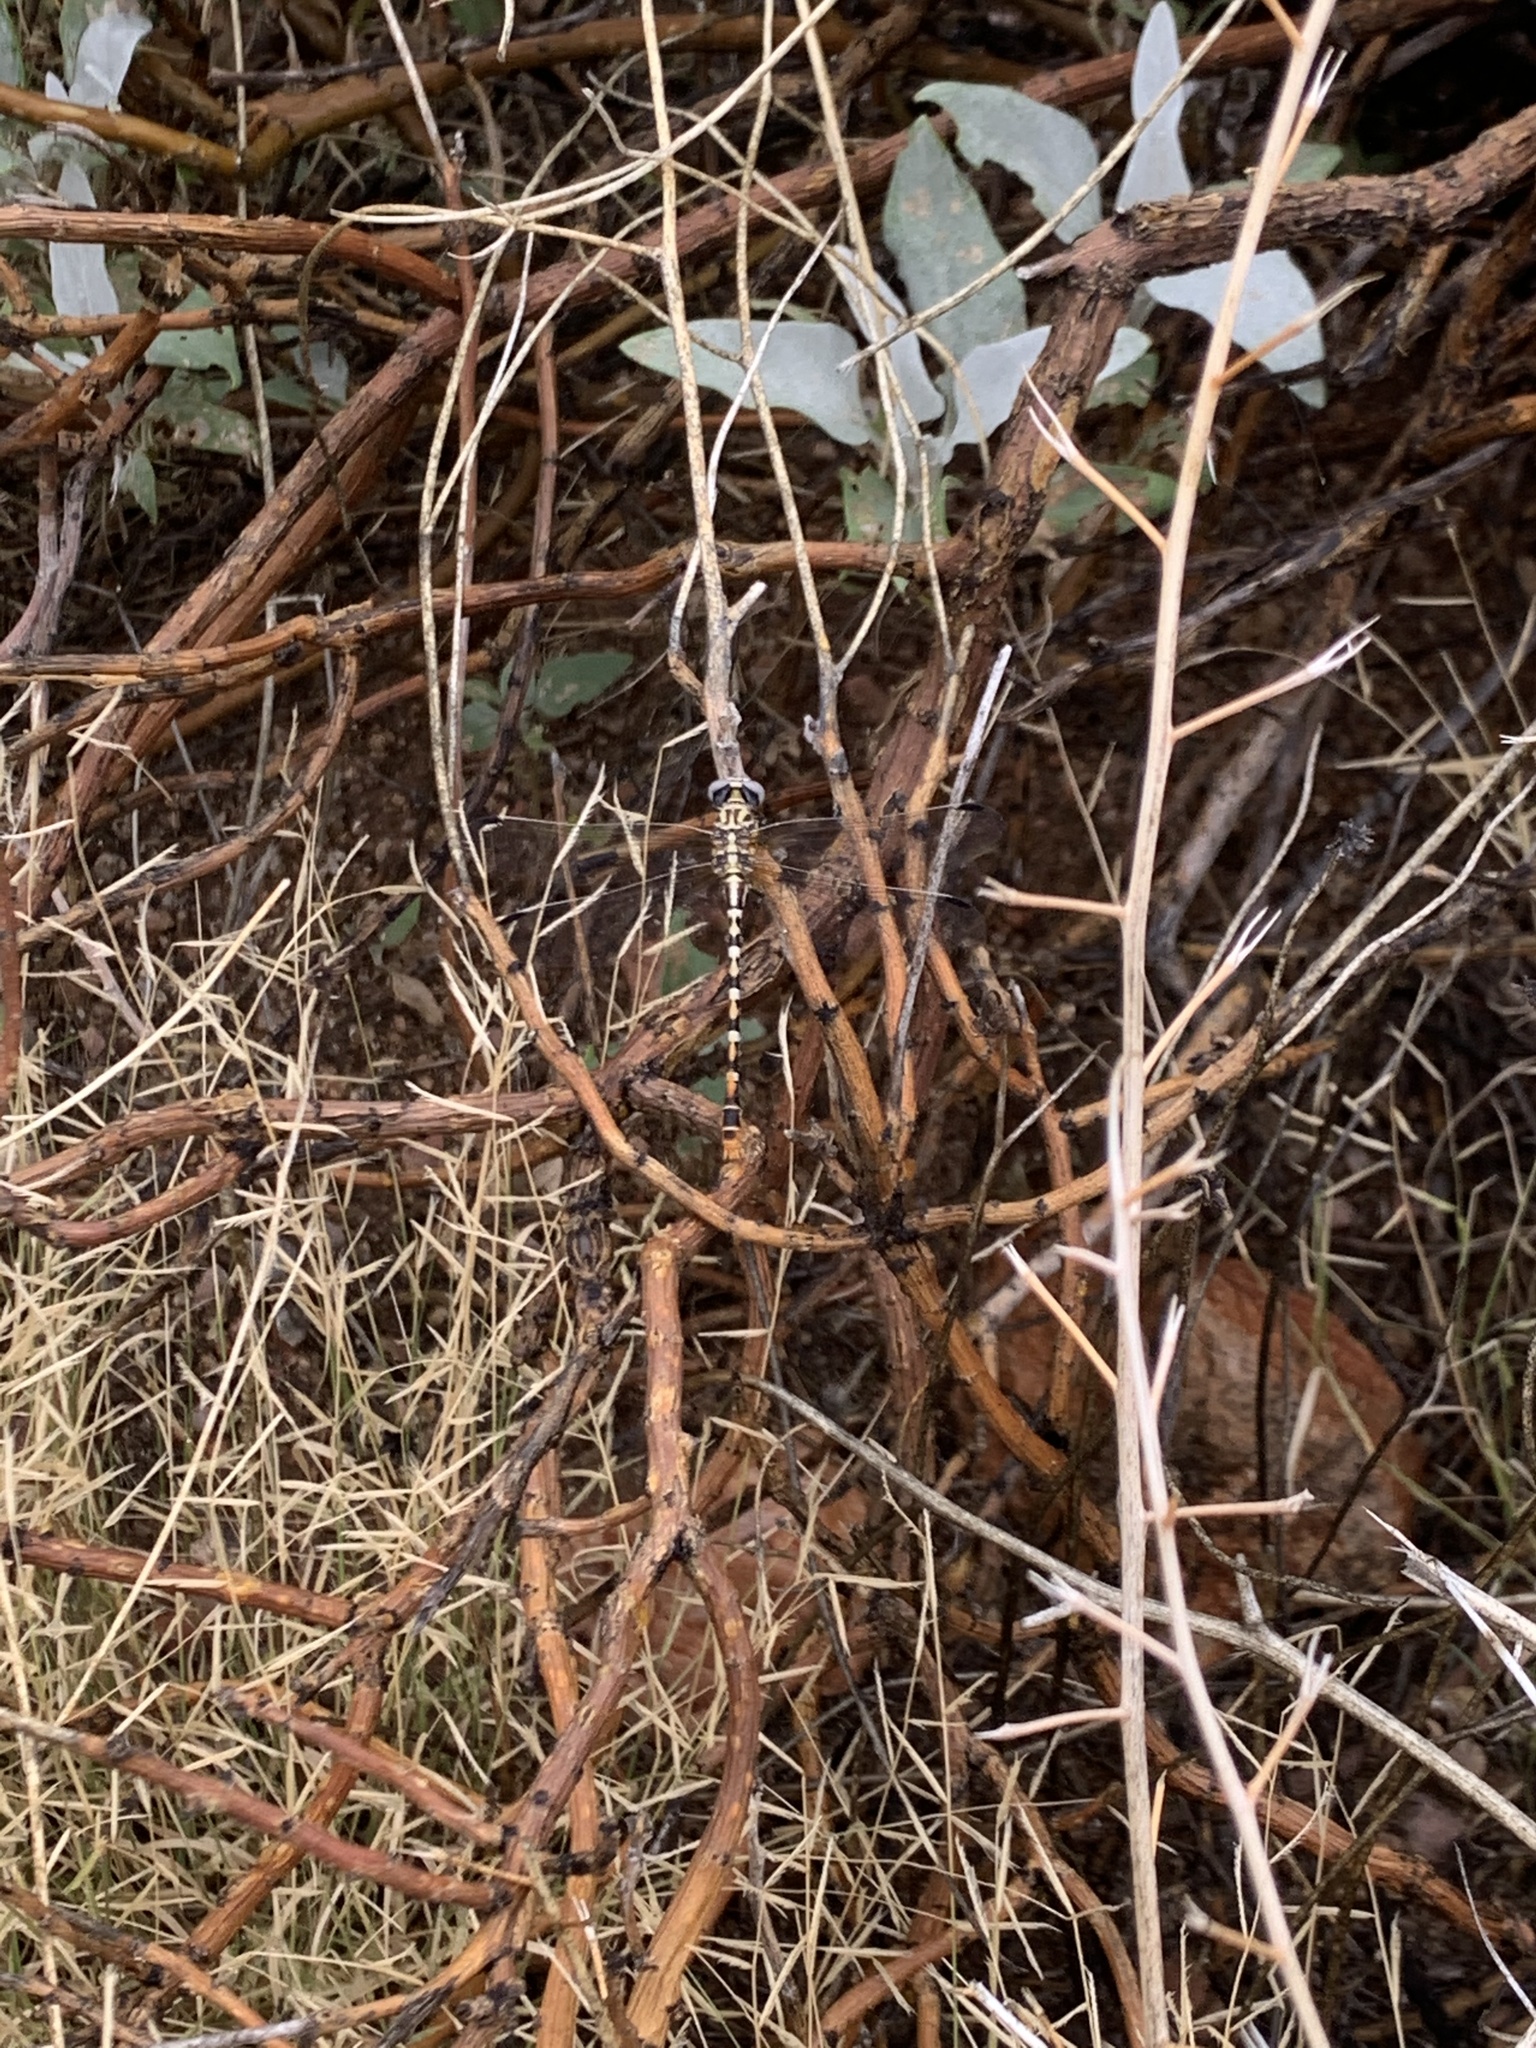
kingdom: Animalia
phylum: Arthropoda
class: Insecta
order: Odonata
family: Gomphidae
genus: Erpetogomphus
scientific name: Erpetogomphus compositus
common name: White-belted ringtail
